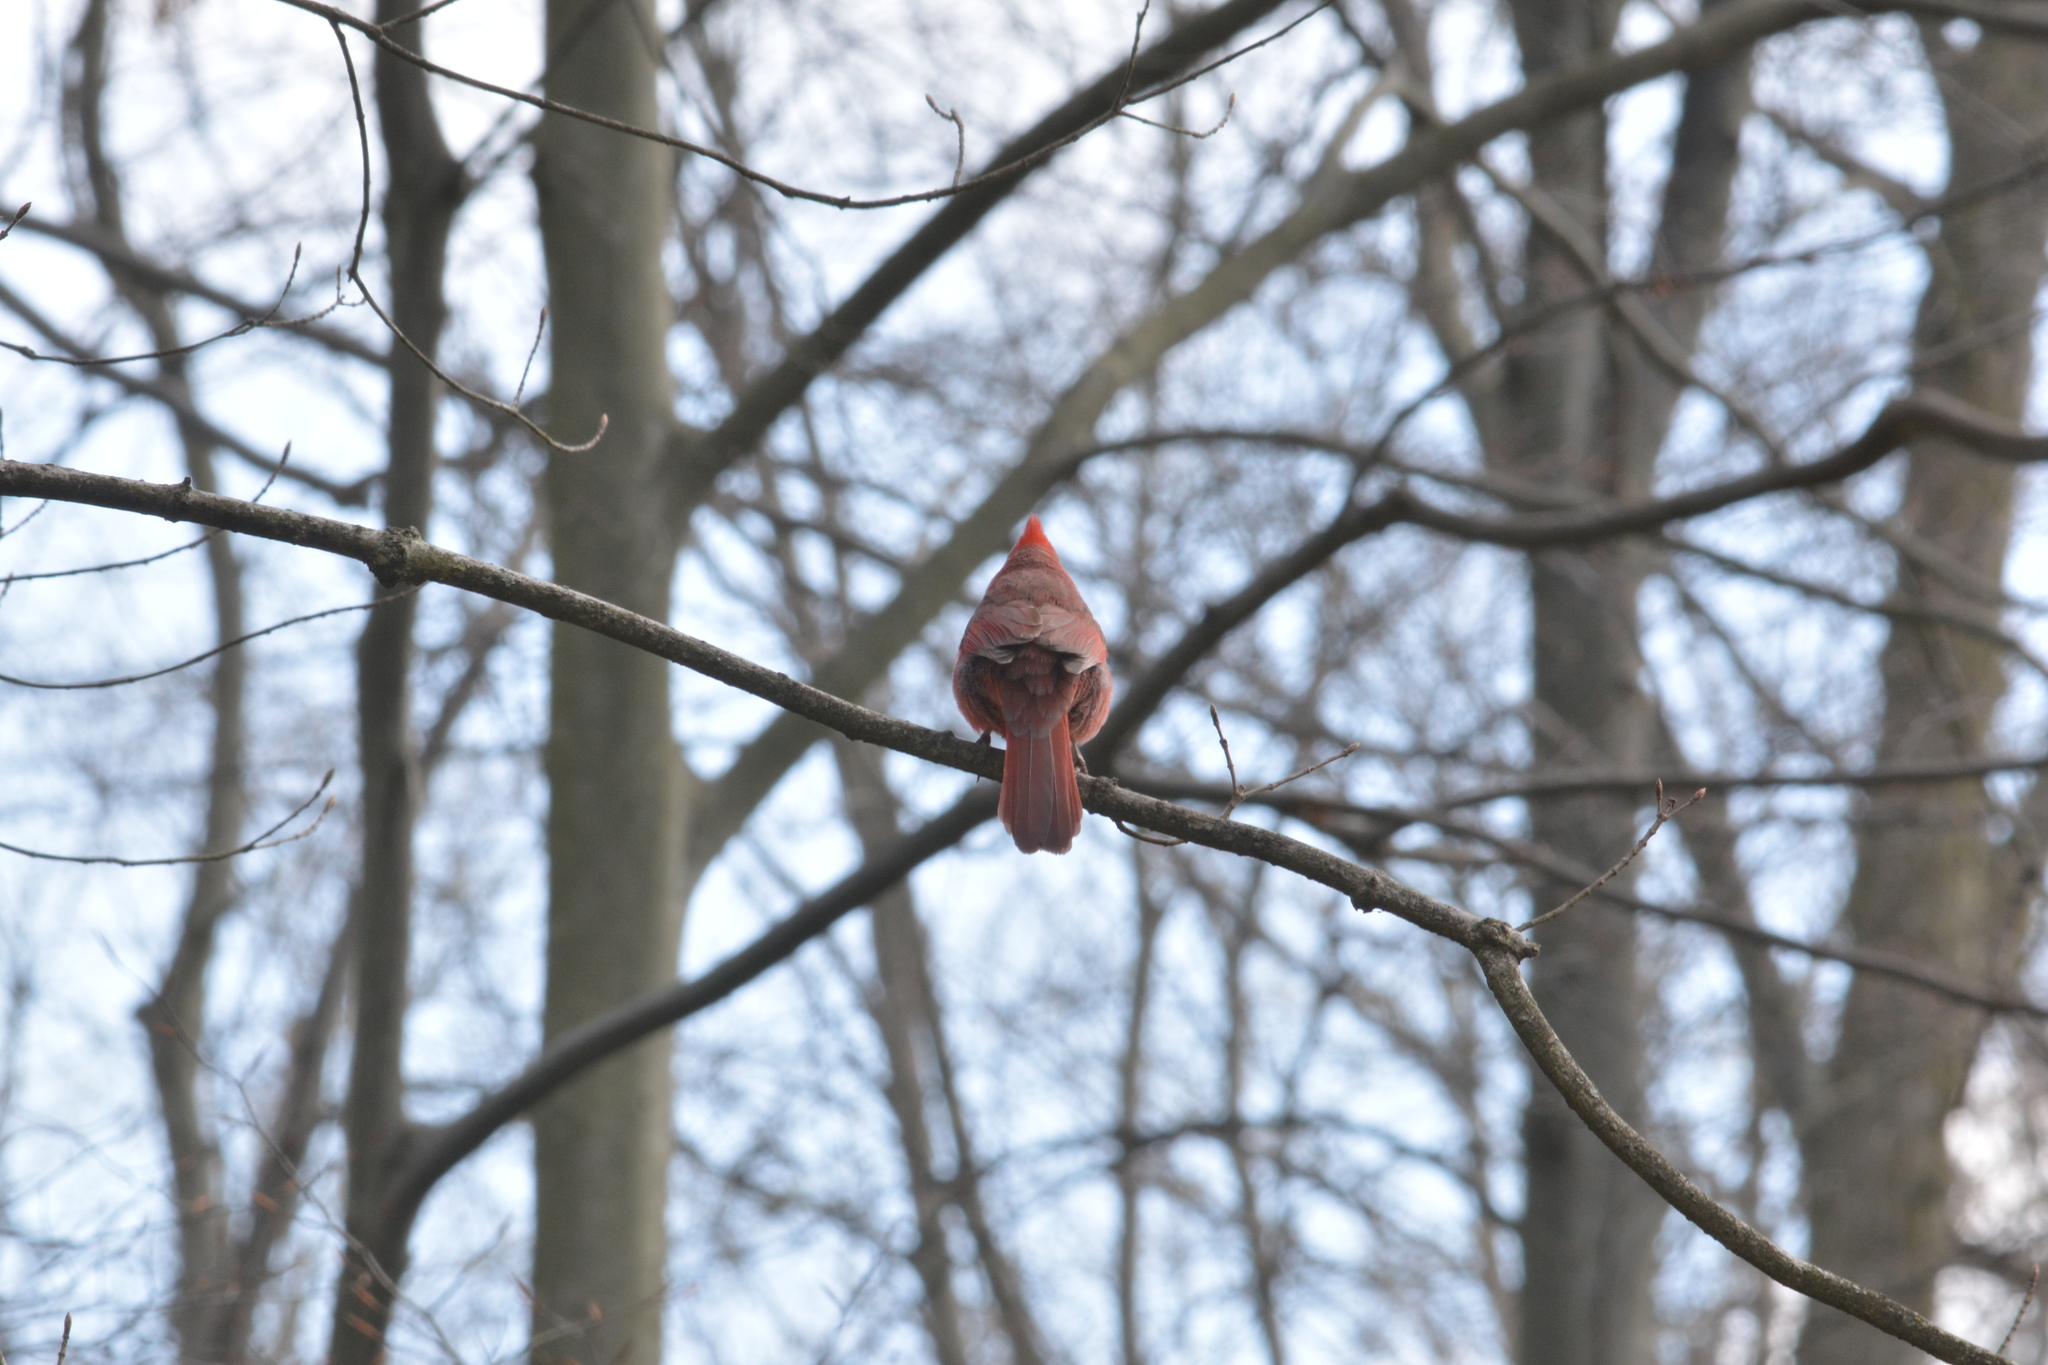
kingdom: Animalia
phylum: Chordata
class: Aves
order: Passeriformes
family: Cardinalidae
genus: Cardinalis
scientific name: Cardinalis cardinalis
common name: Northern cardinal
